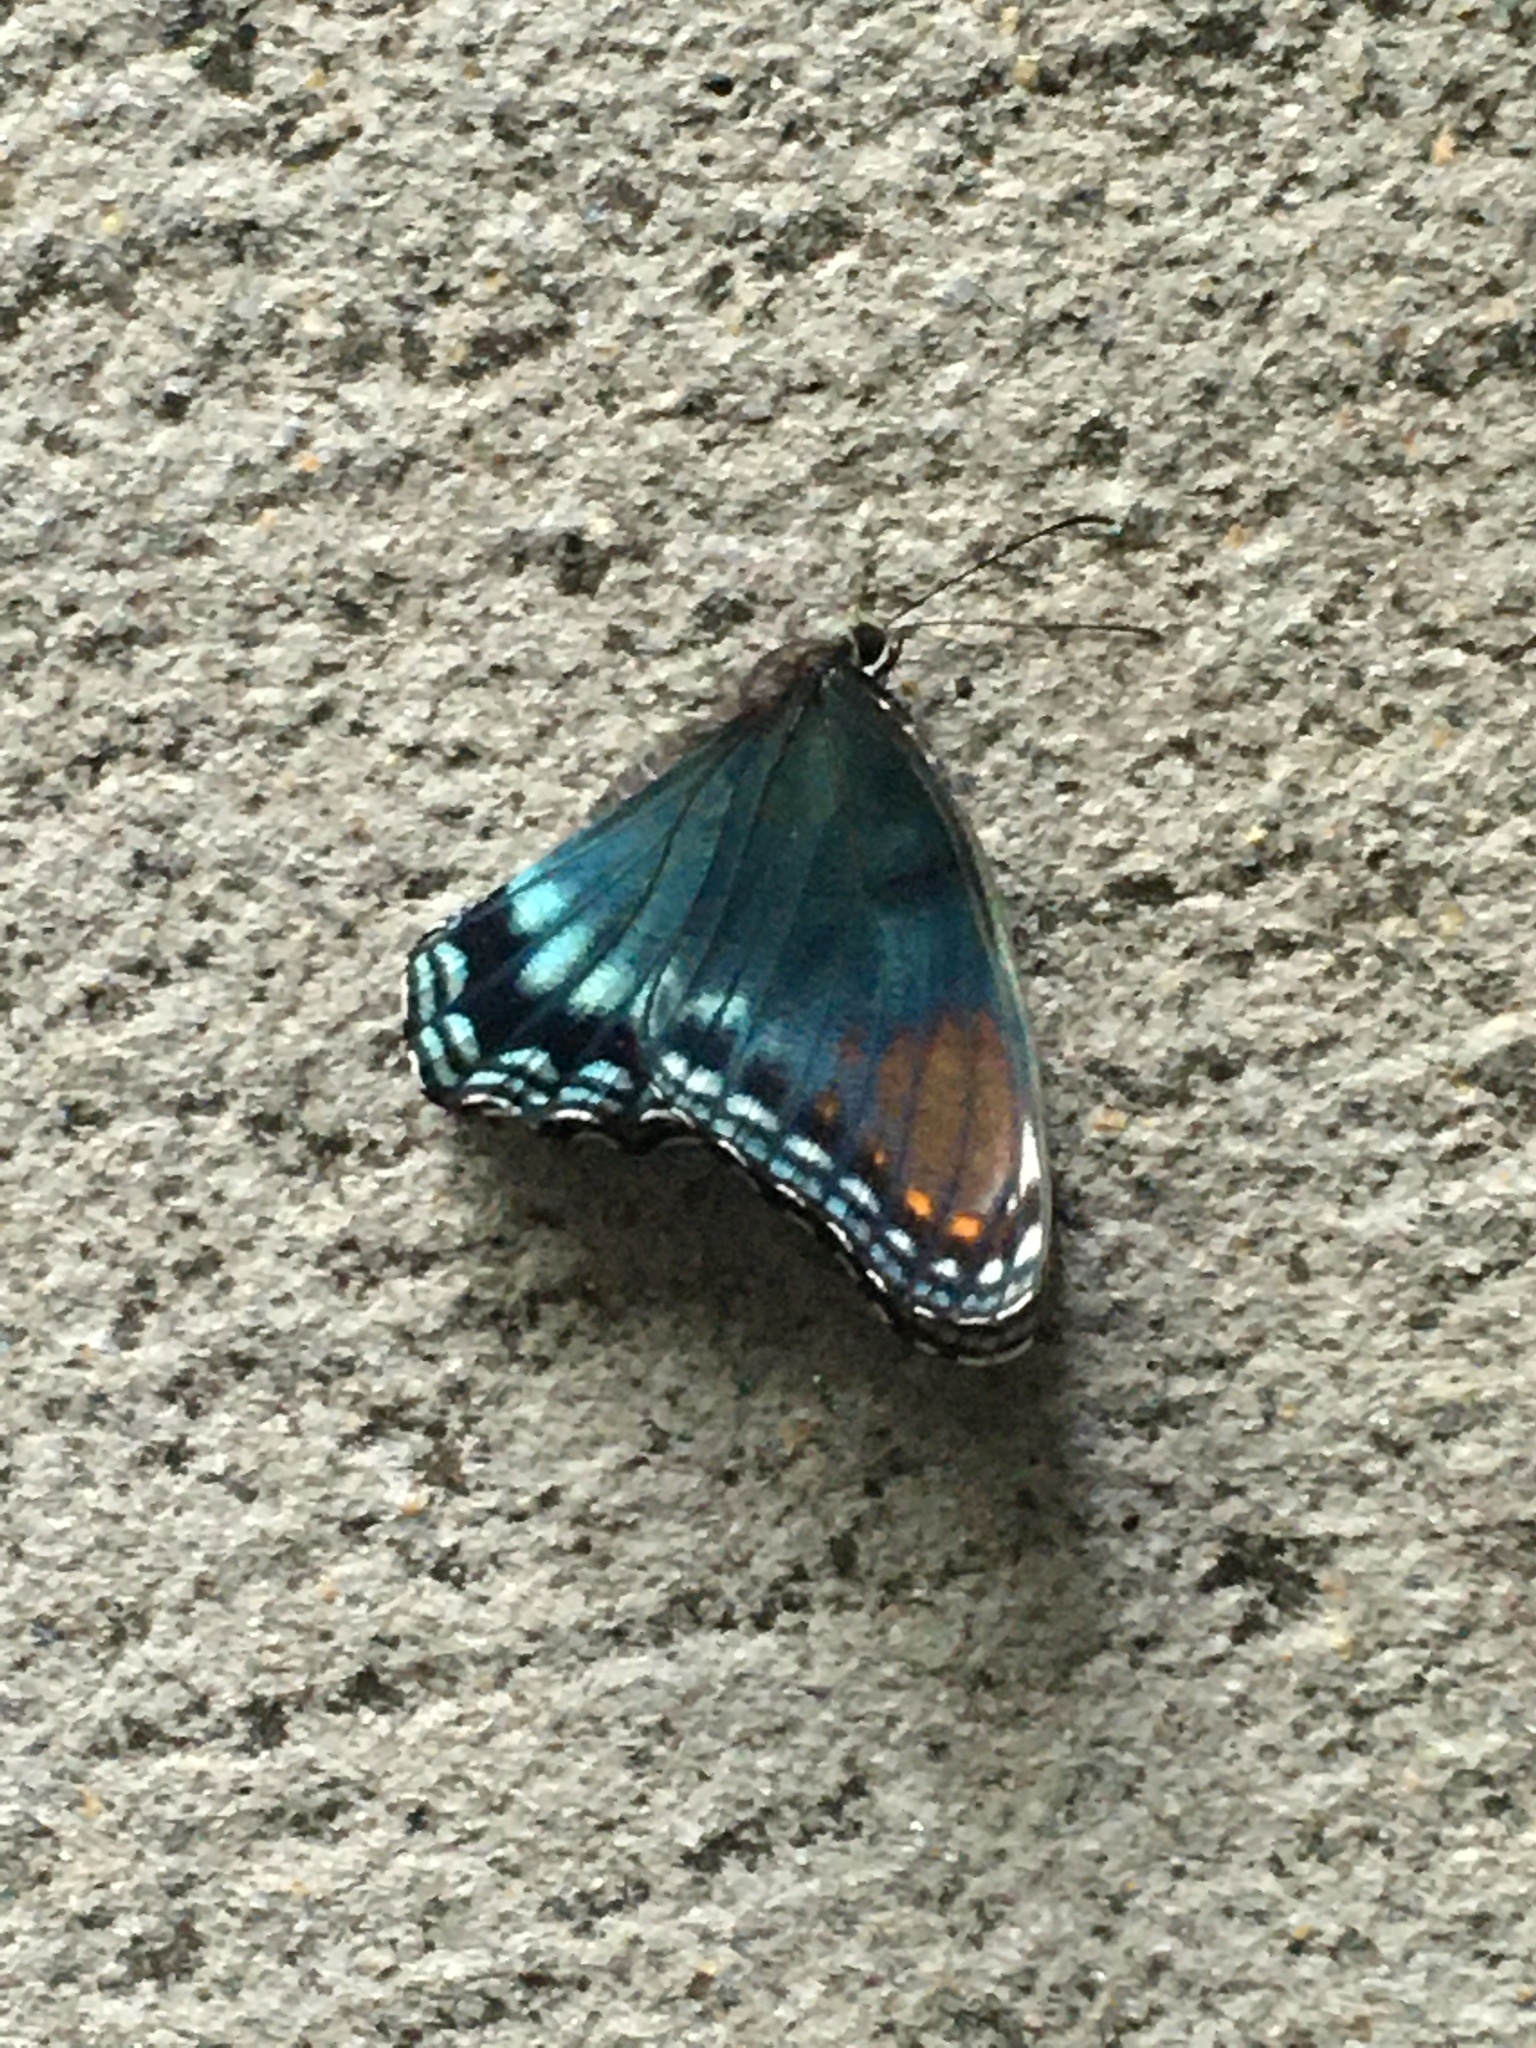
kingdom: Animalia
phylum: Arthropoda
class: Insecta
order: Lepidoptera
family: Nymphalidae
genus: Limenitis
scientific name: Limenitis astyanax
